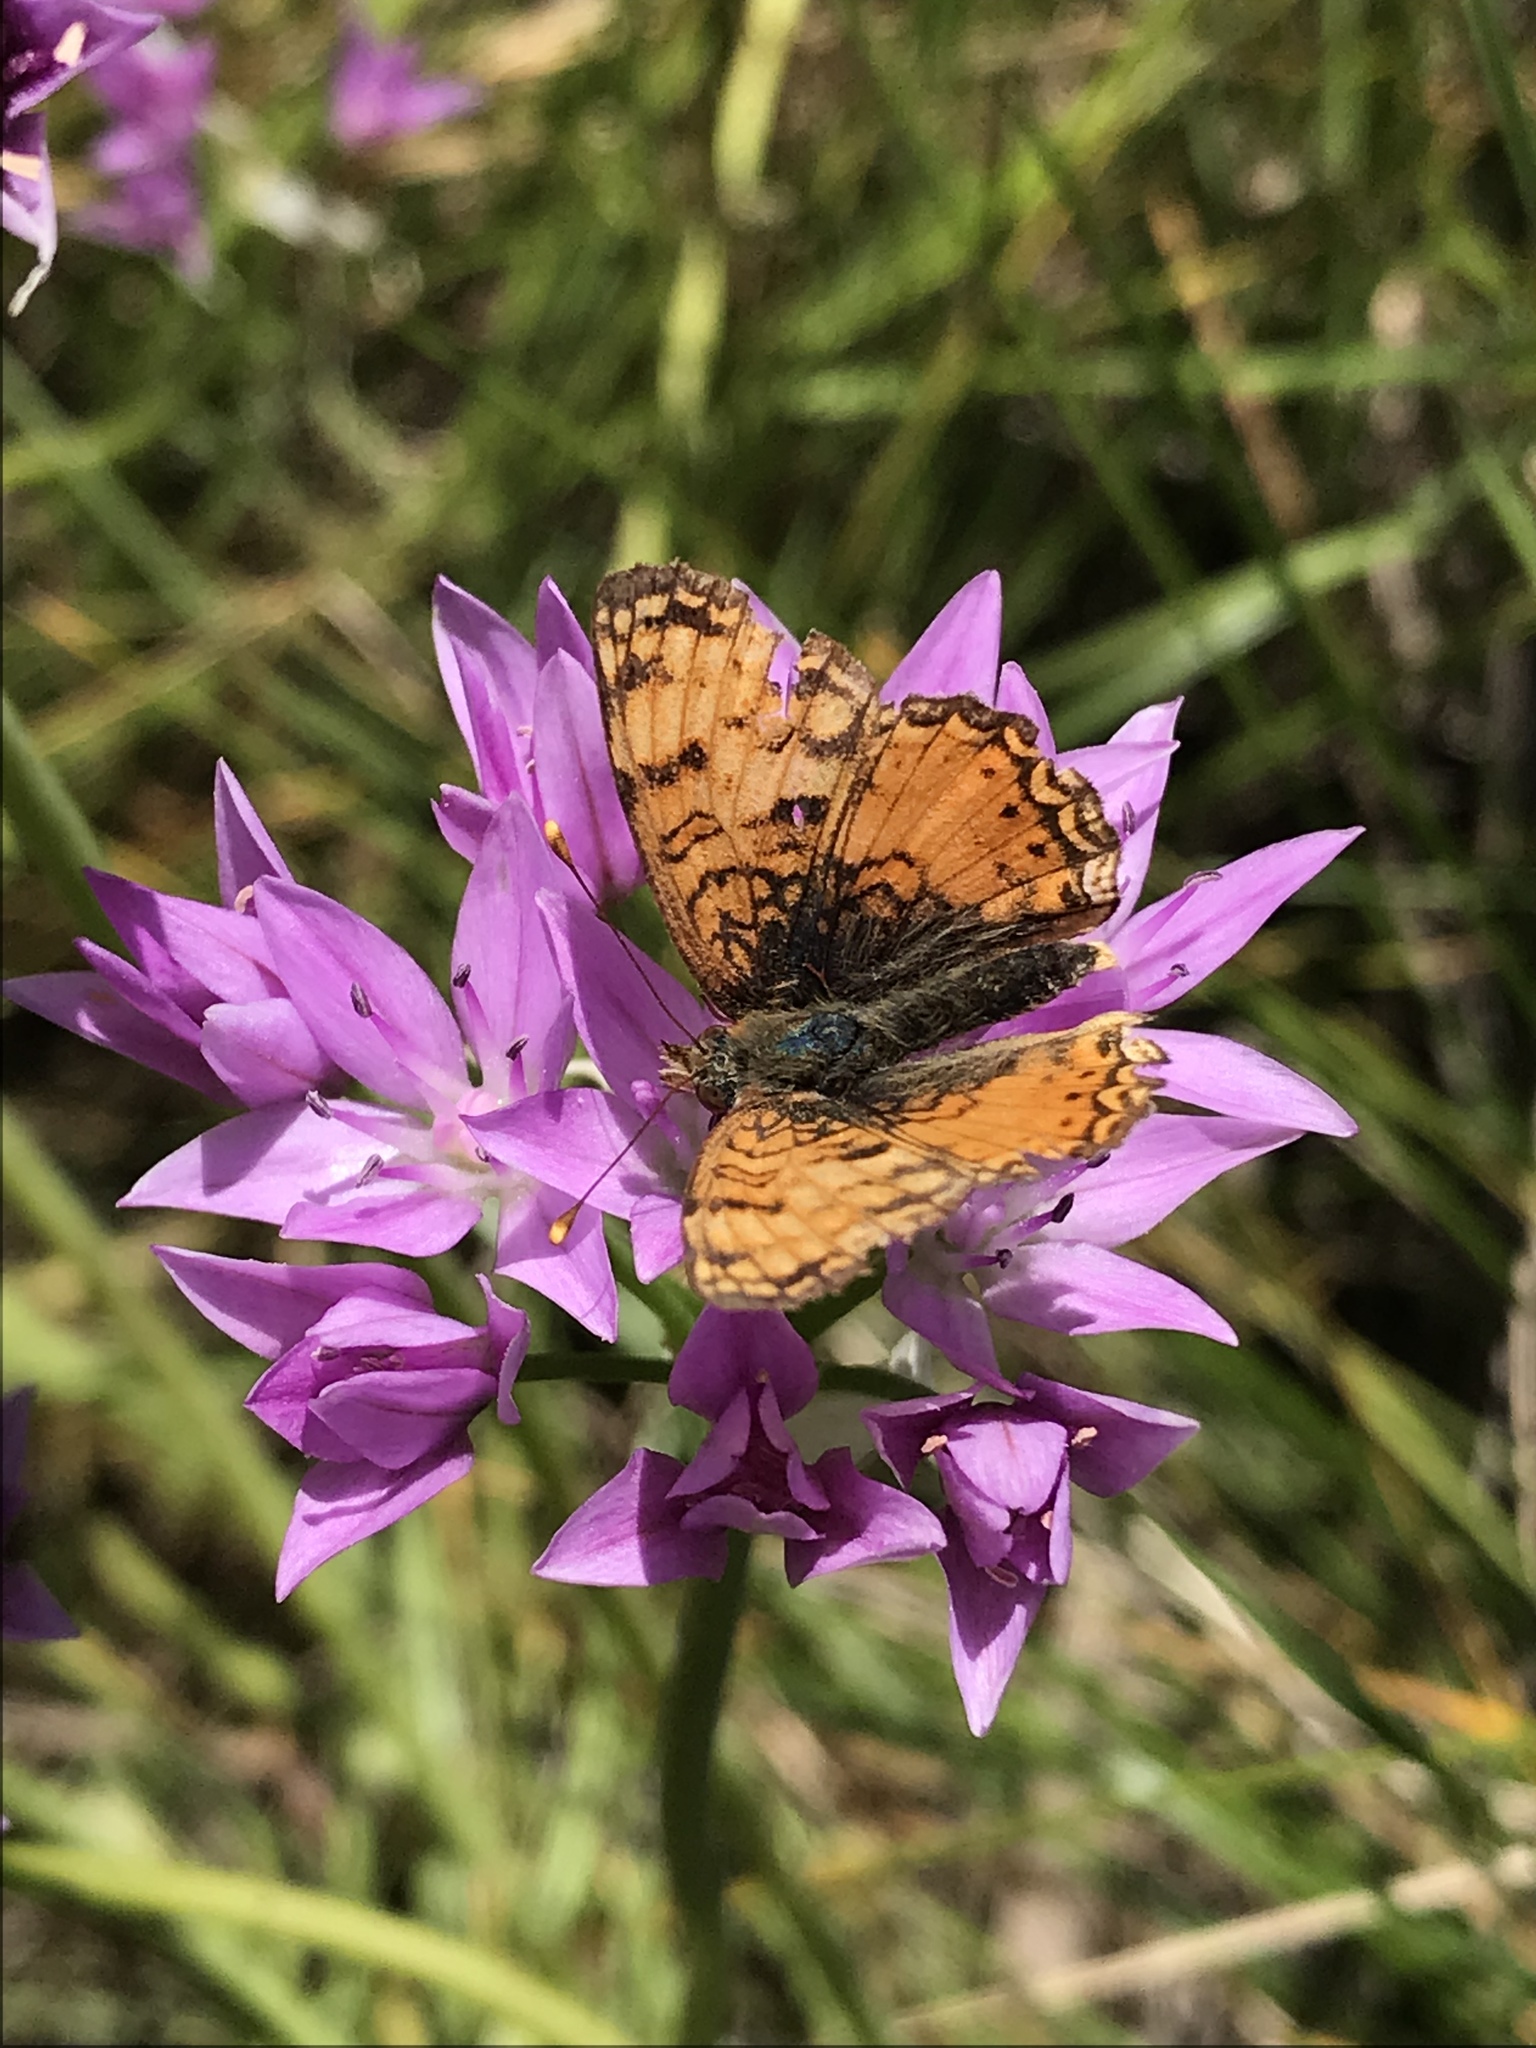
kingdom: Animalia
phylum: Arthropoda
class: Insecta
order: Lepidoptera
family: Nymphalidae
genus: Eresia
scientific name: Eresia aveyrona
